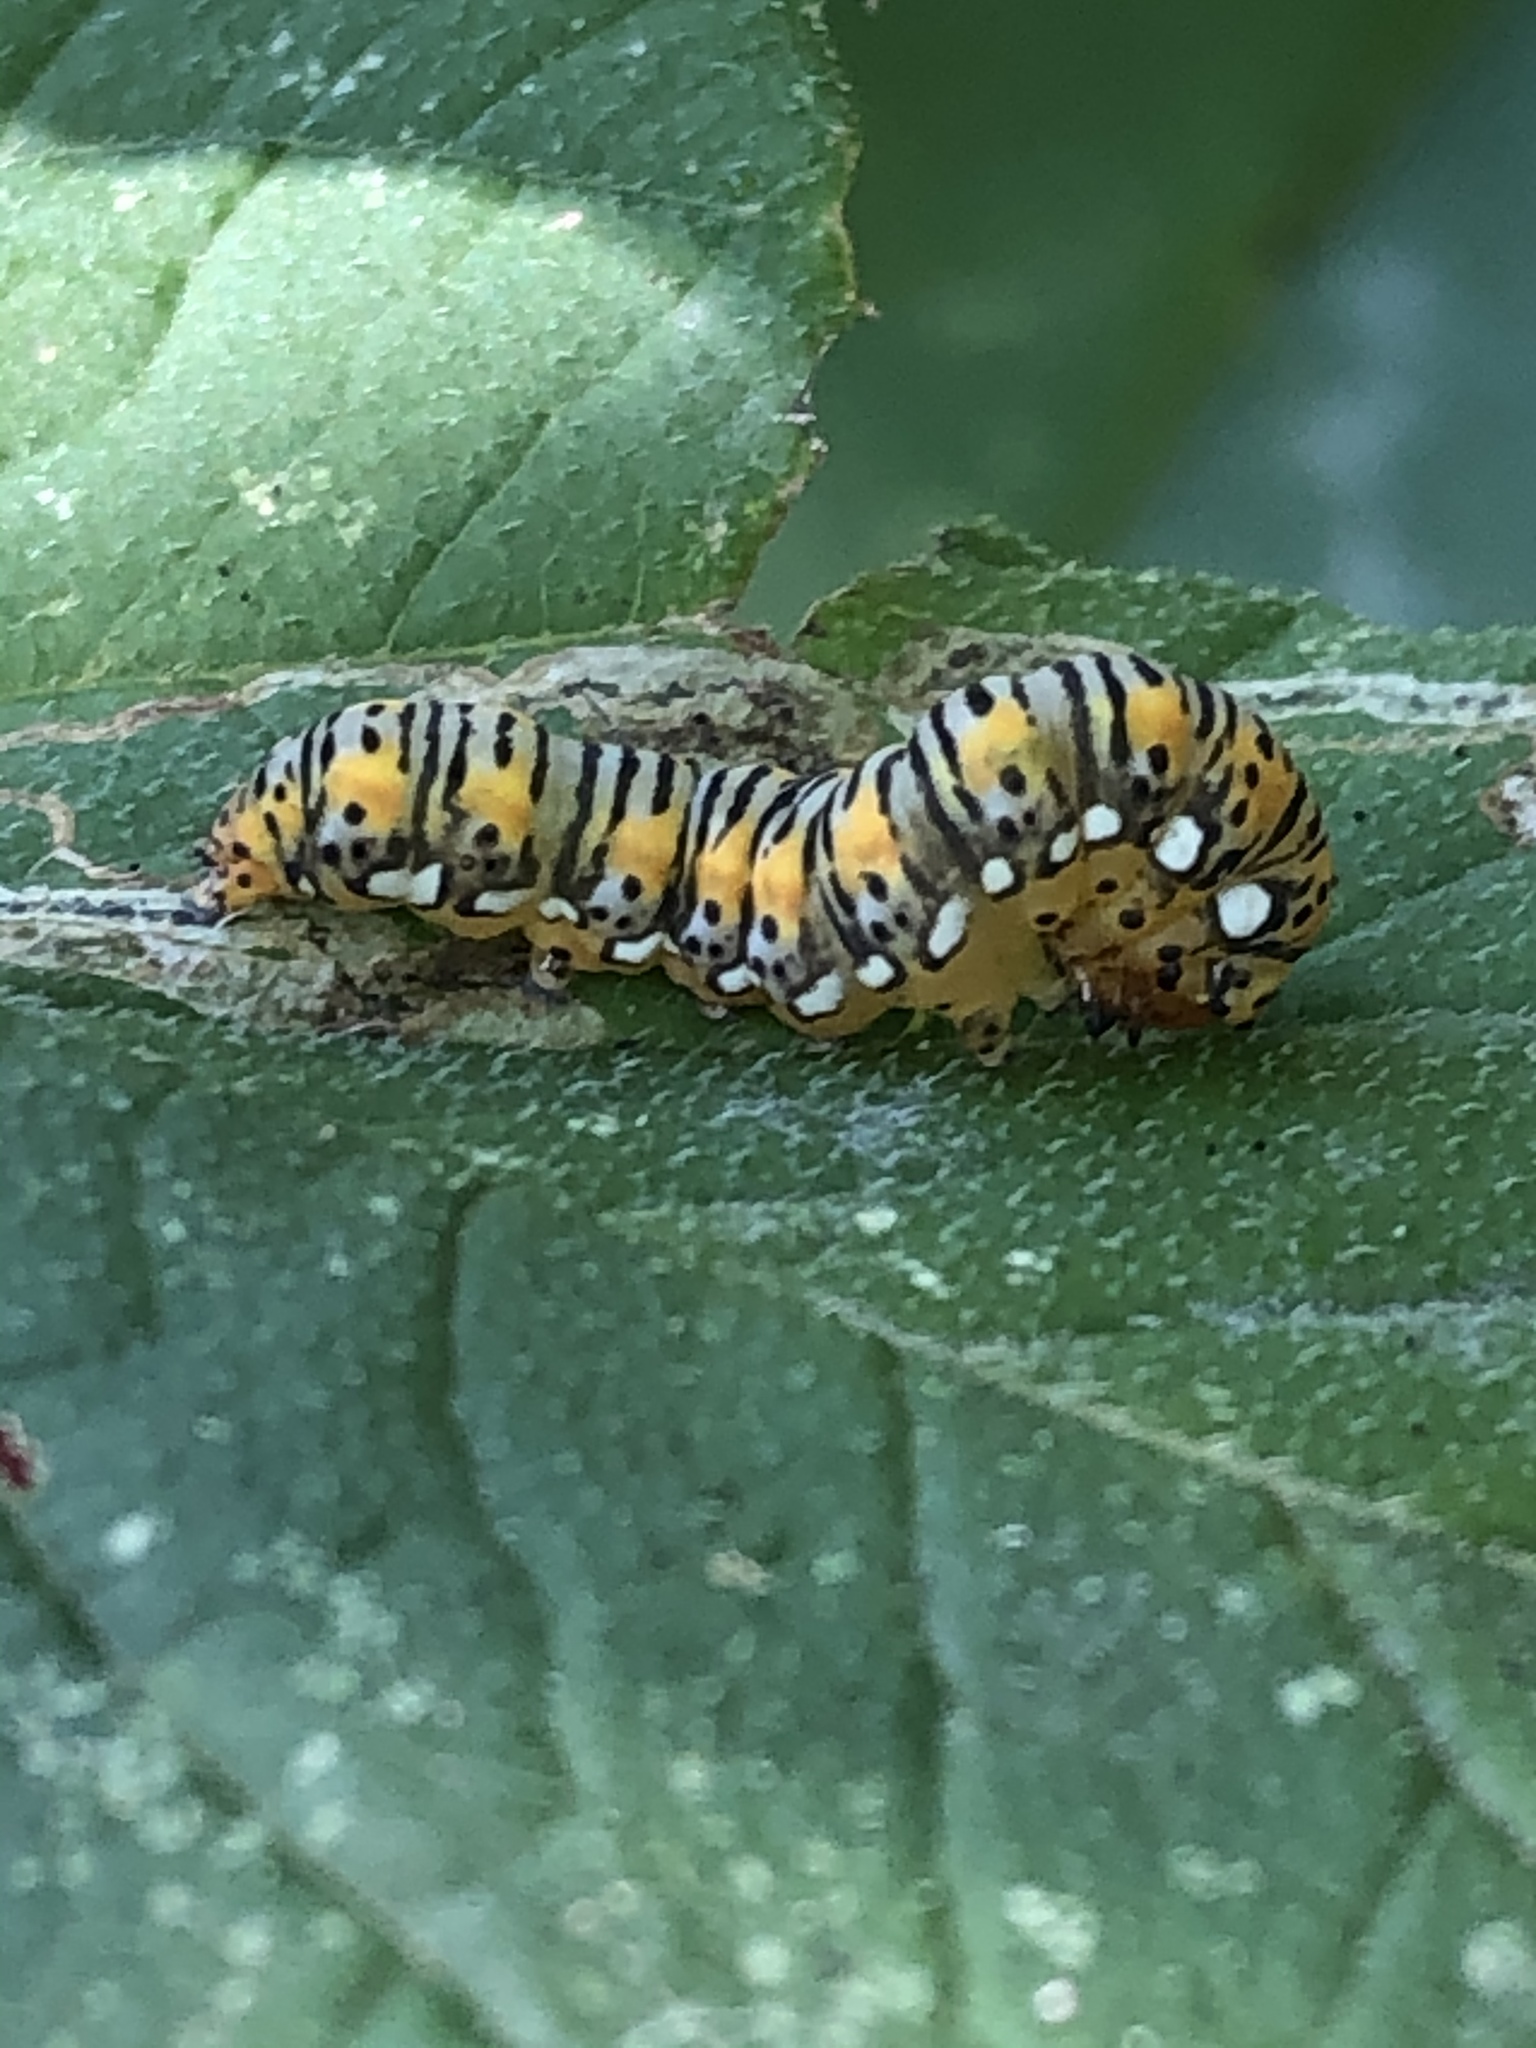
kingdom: Animalia
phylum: Arthropoda
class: Insecta
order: Lepidoptera
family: Noctuidae
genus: Basilodes
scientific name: Basilodes pepita
